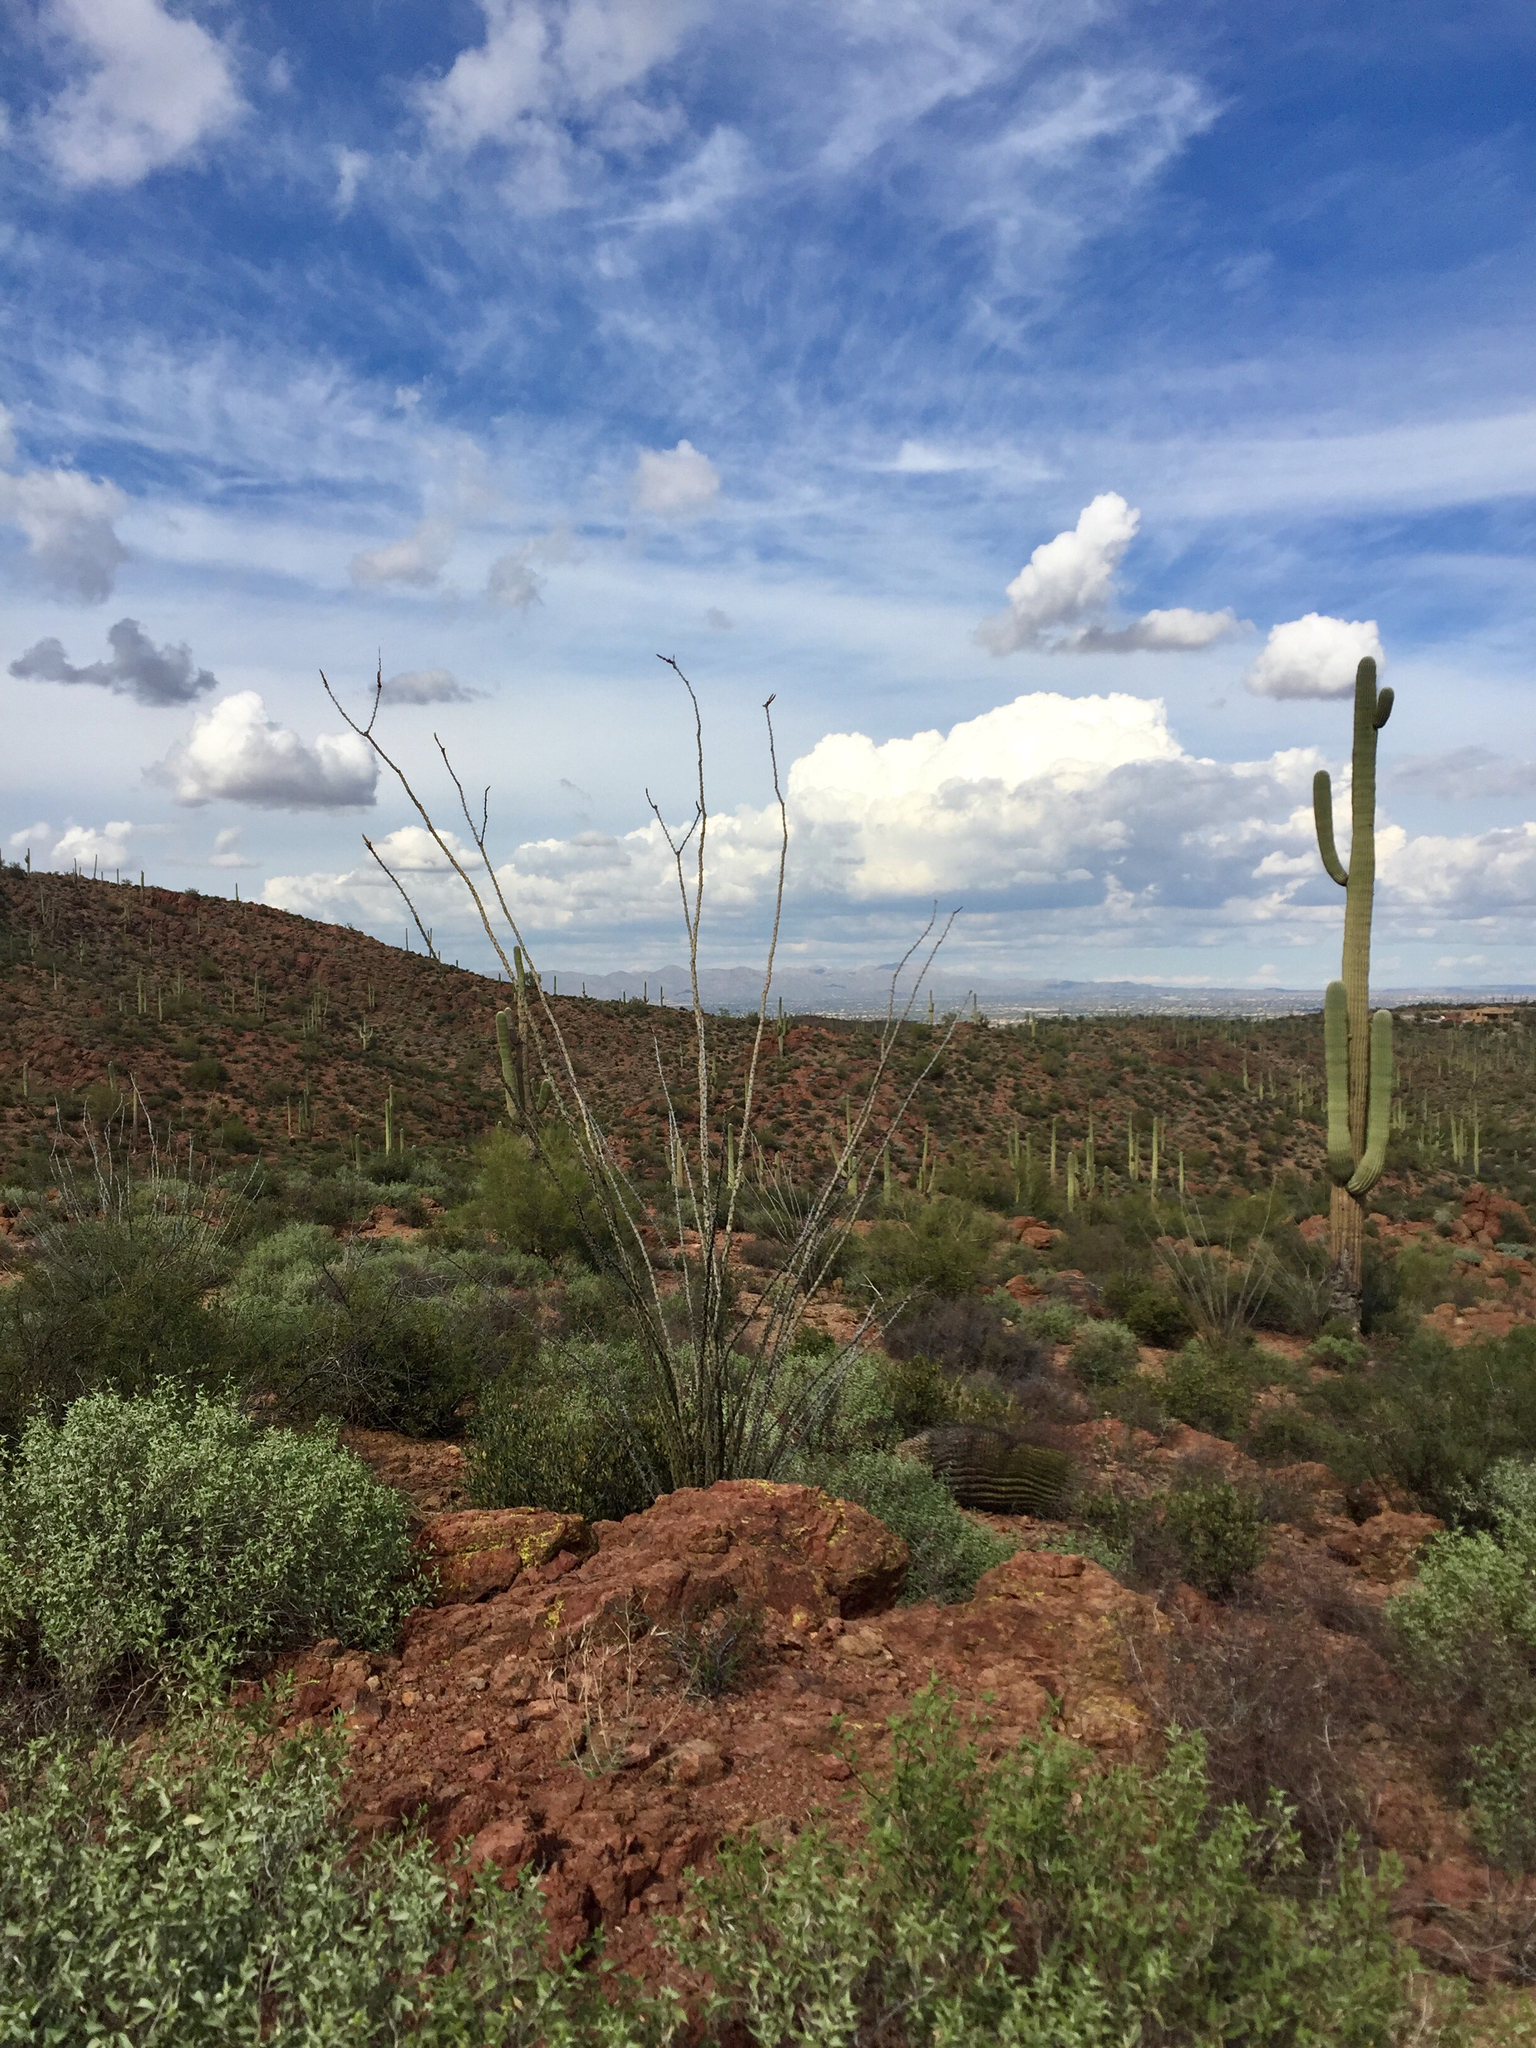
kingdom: Plantae
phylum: Tracheophyta
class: Magnoliopsida
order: Ericales
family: Fouquieriaceae
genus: Fouquieria
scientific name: Fouquieria splendens
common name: Vine-cactus
